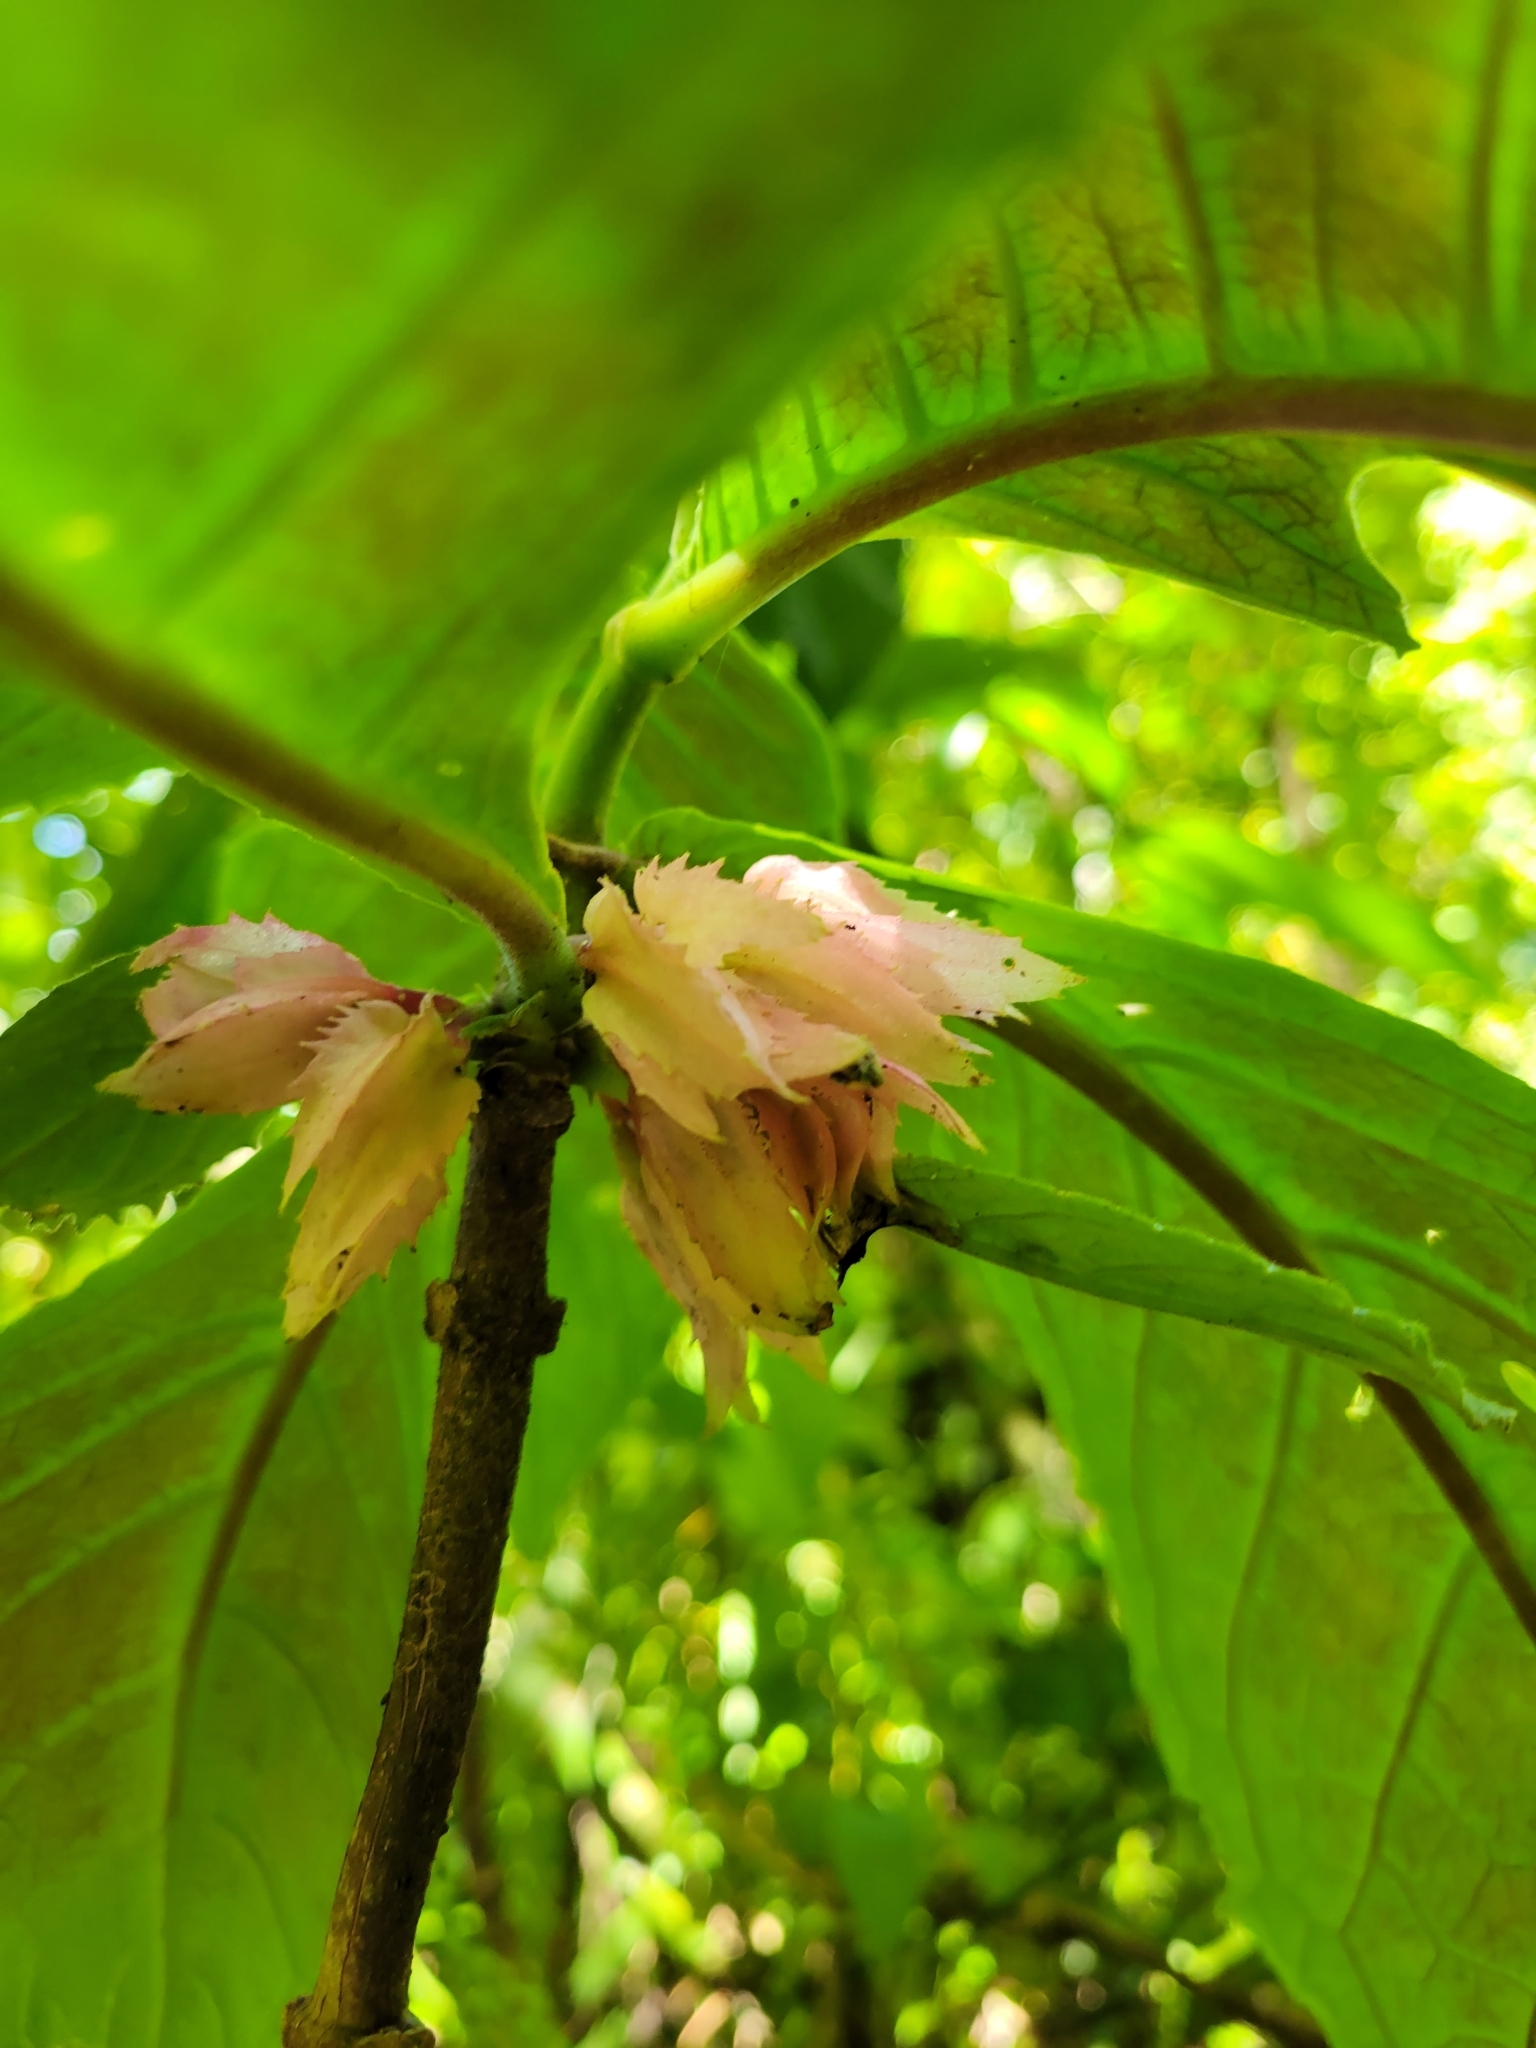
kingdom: Plantae
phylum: Tracheophyta
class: Magnoliopsida
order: Lamiales
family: Gesneriaceae
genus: Drymonia
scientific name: Drymonia parviflora
